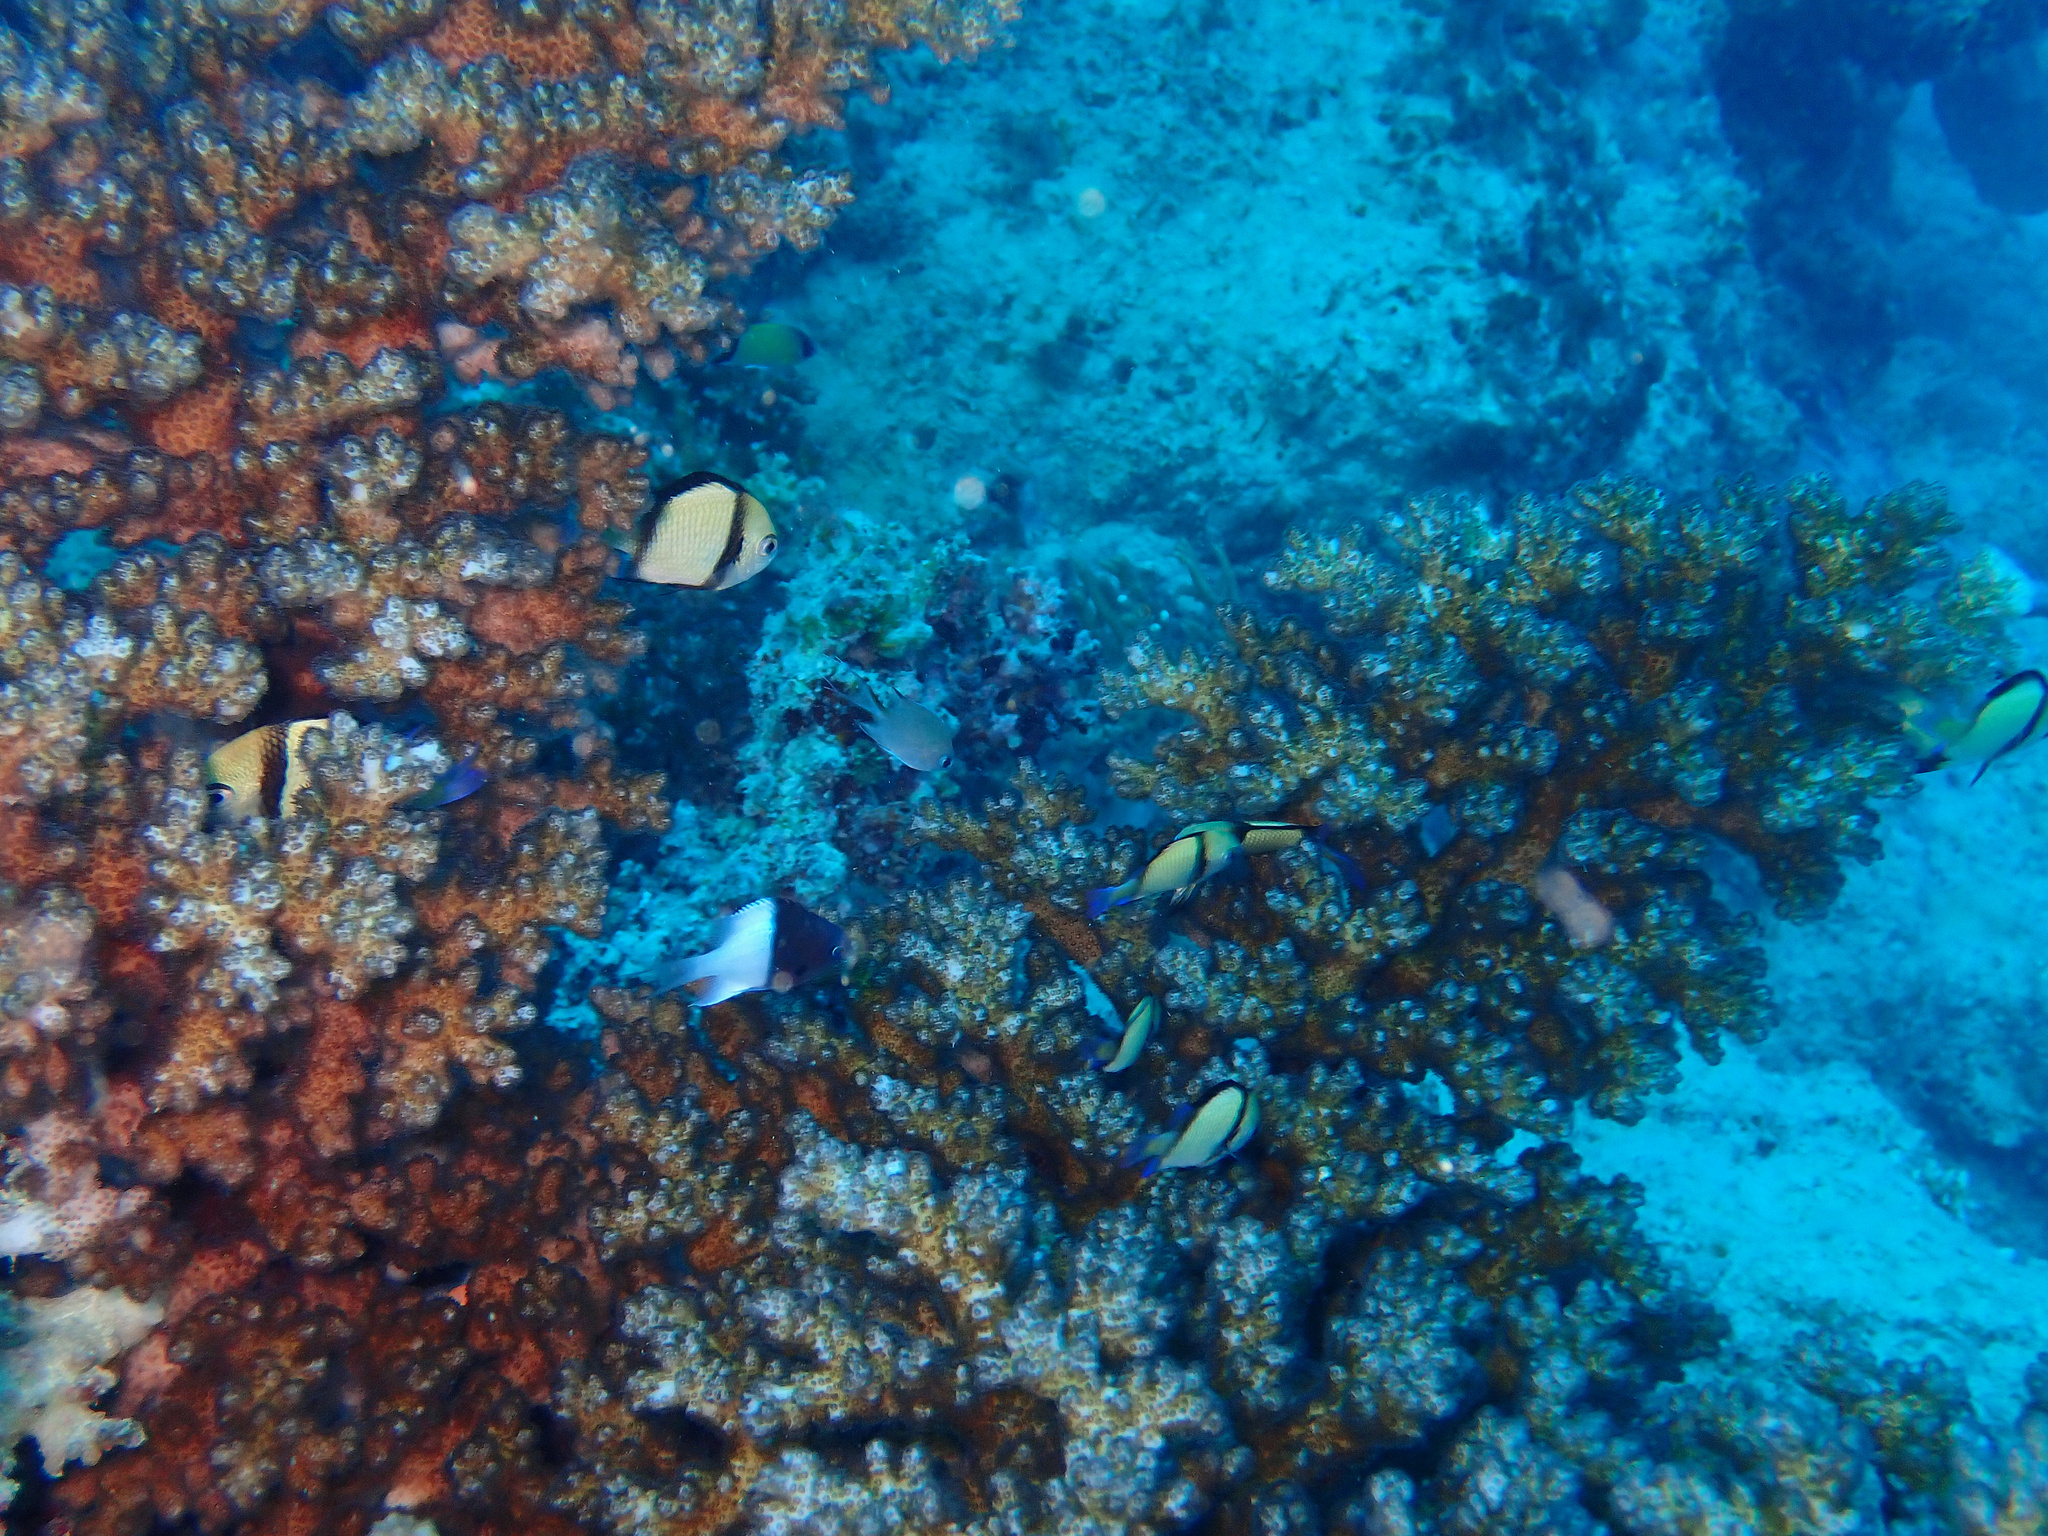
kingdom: Animalia
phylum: Chordata
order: Perciformes
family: Pomacentridae
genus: Dascyllus
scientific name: Dascyllus reticulatus
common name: Reticulated dascyllus
